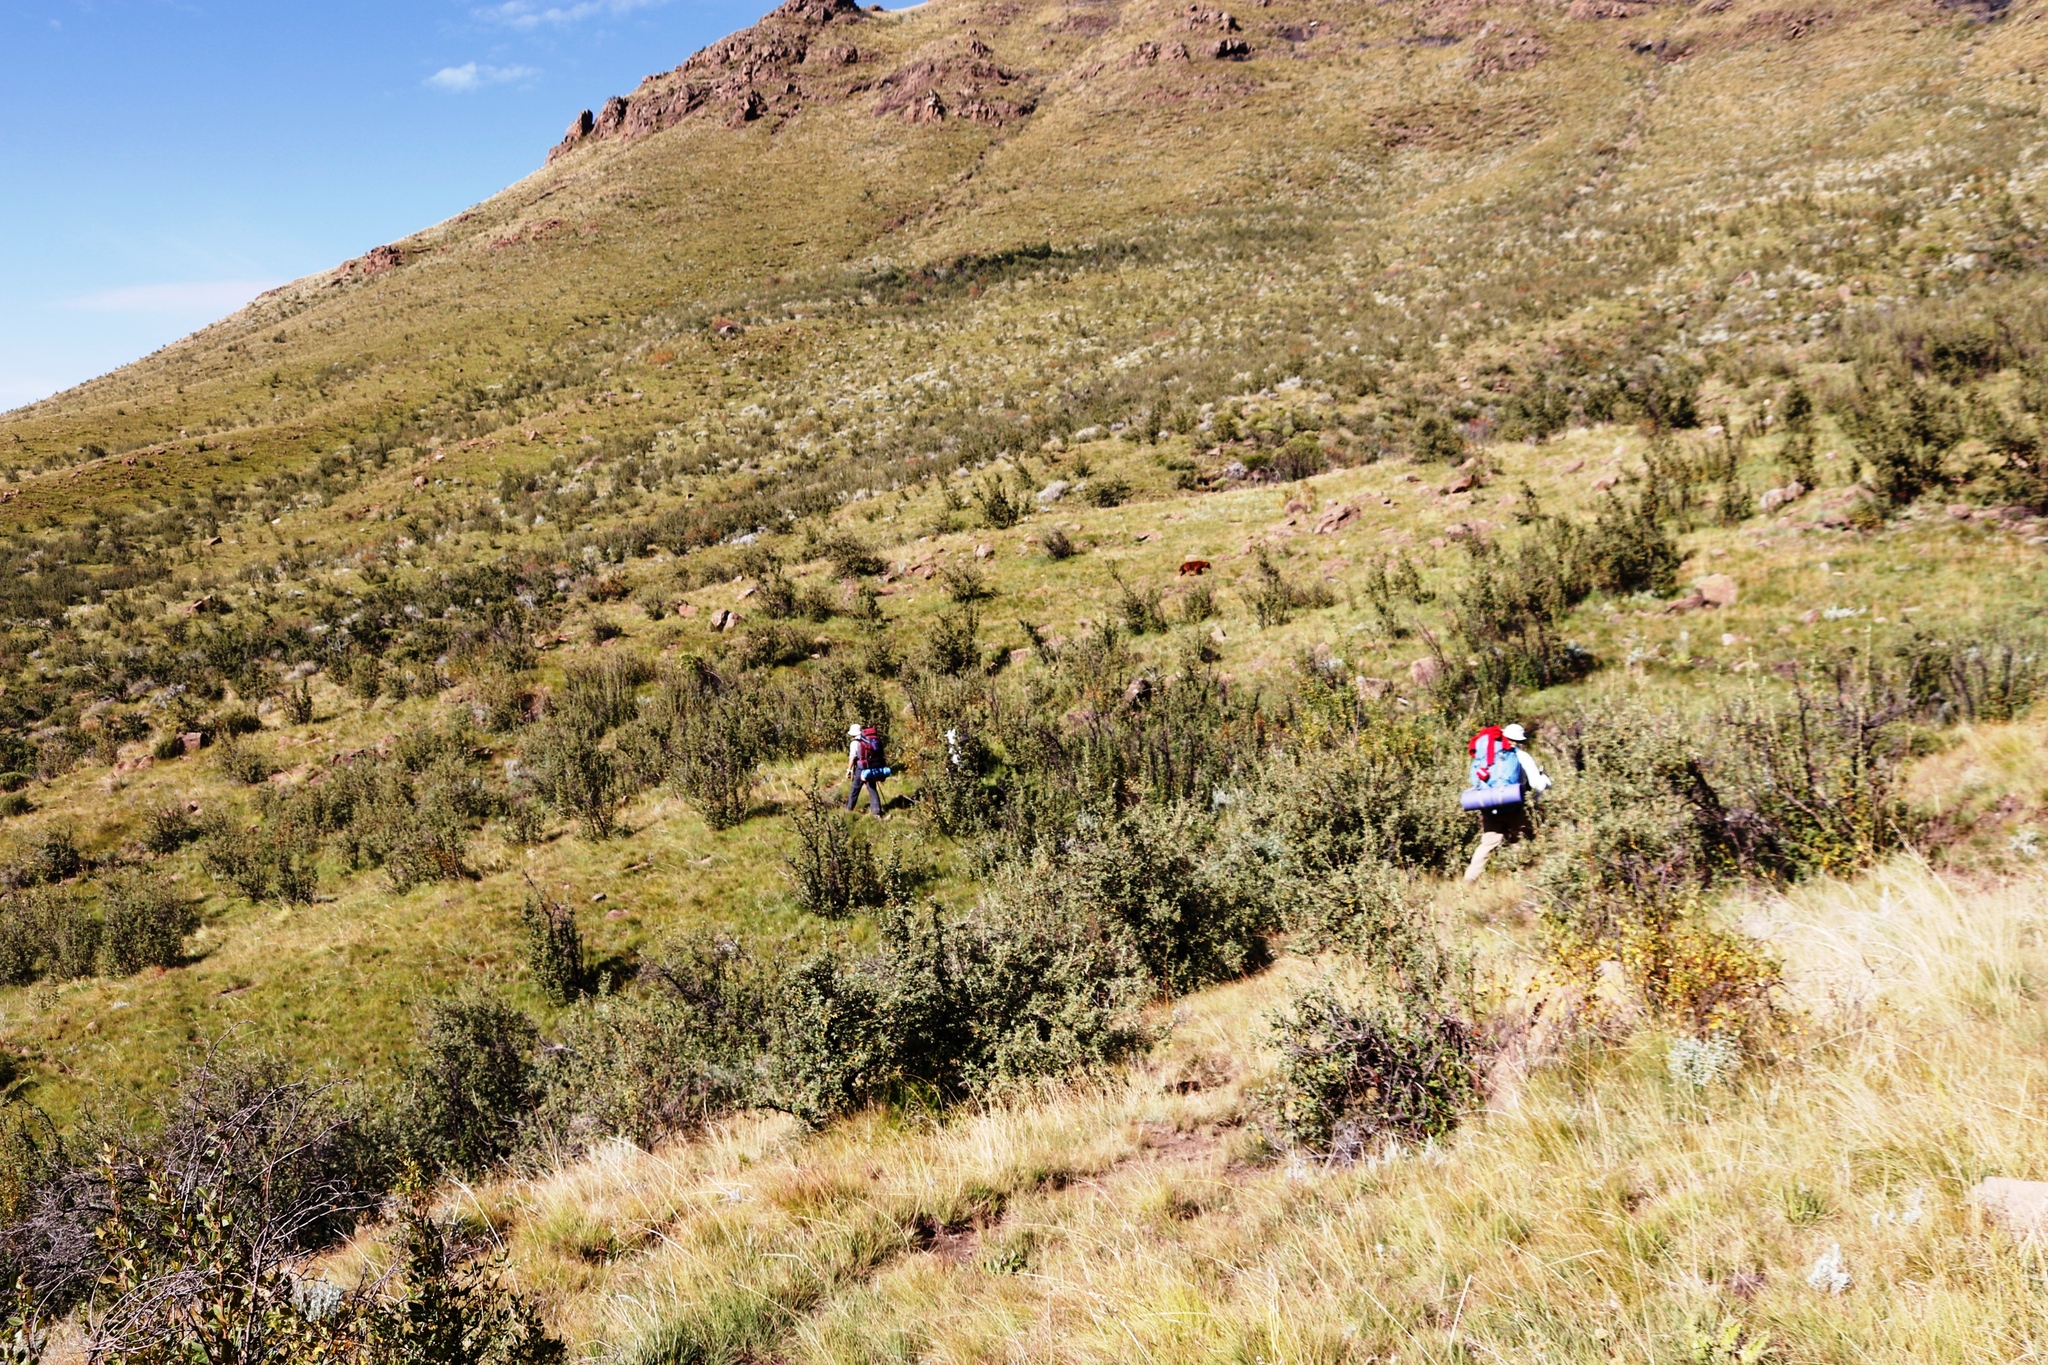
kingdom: Plantae
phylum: Tracheophyta
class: Magnoliopsida
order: Rosales
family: Rosaceae
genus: Leucosidea
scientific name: Leucosidea sericea
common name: Oldwood
